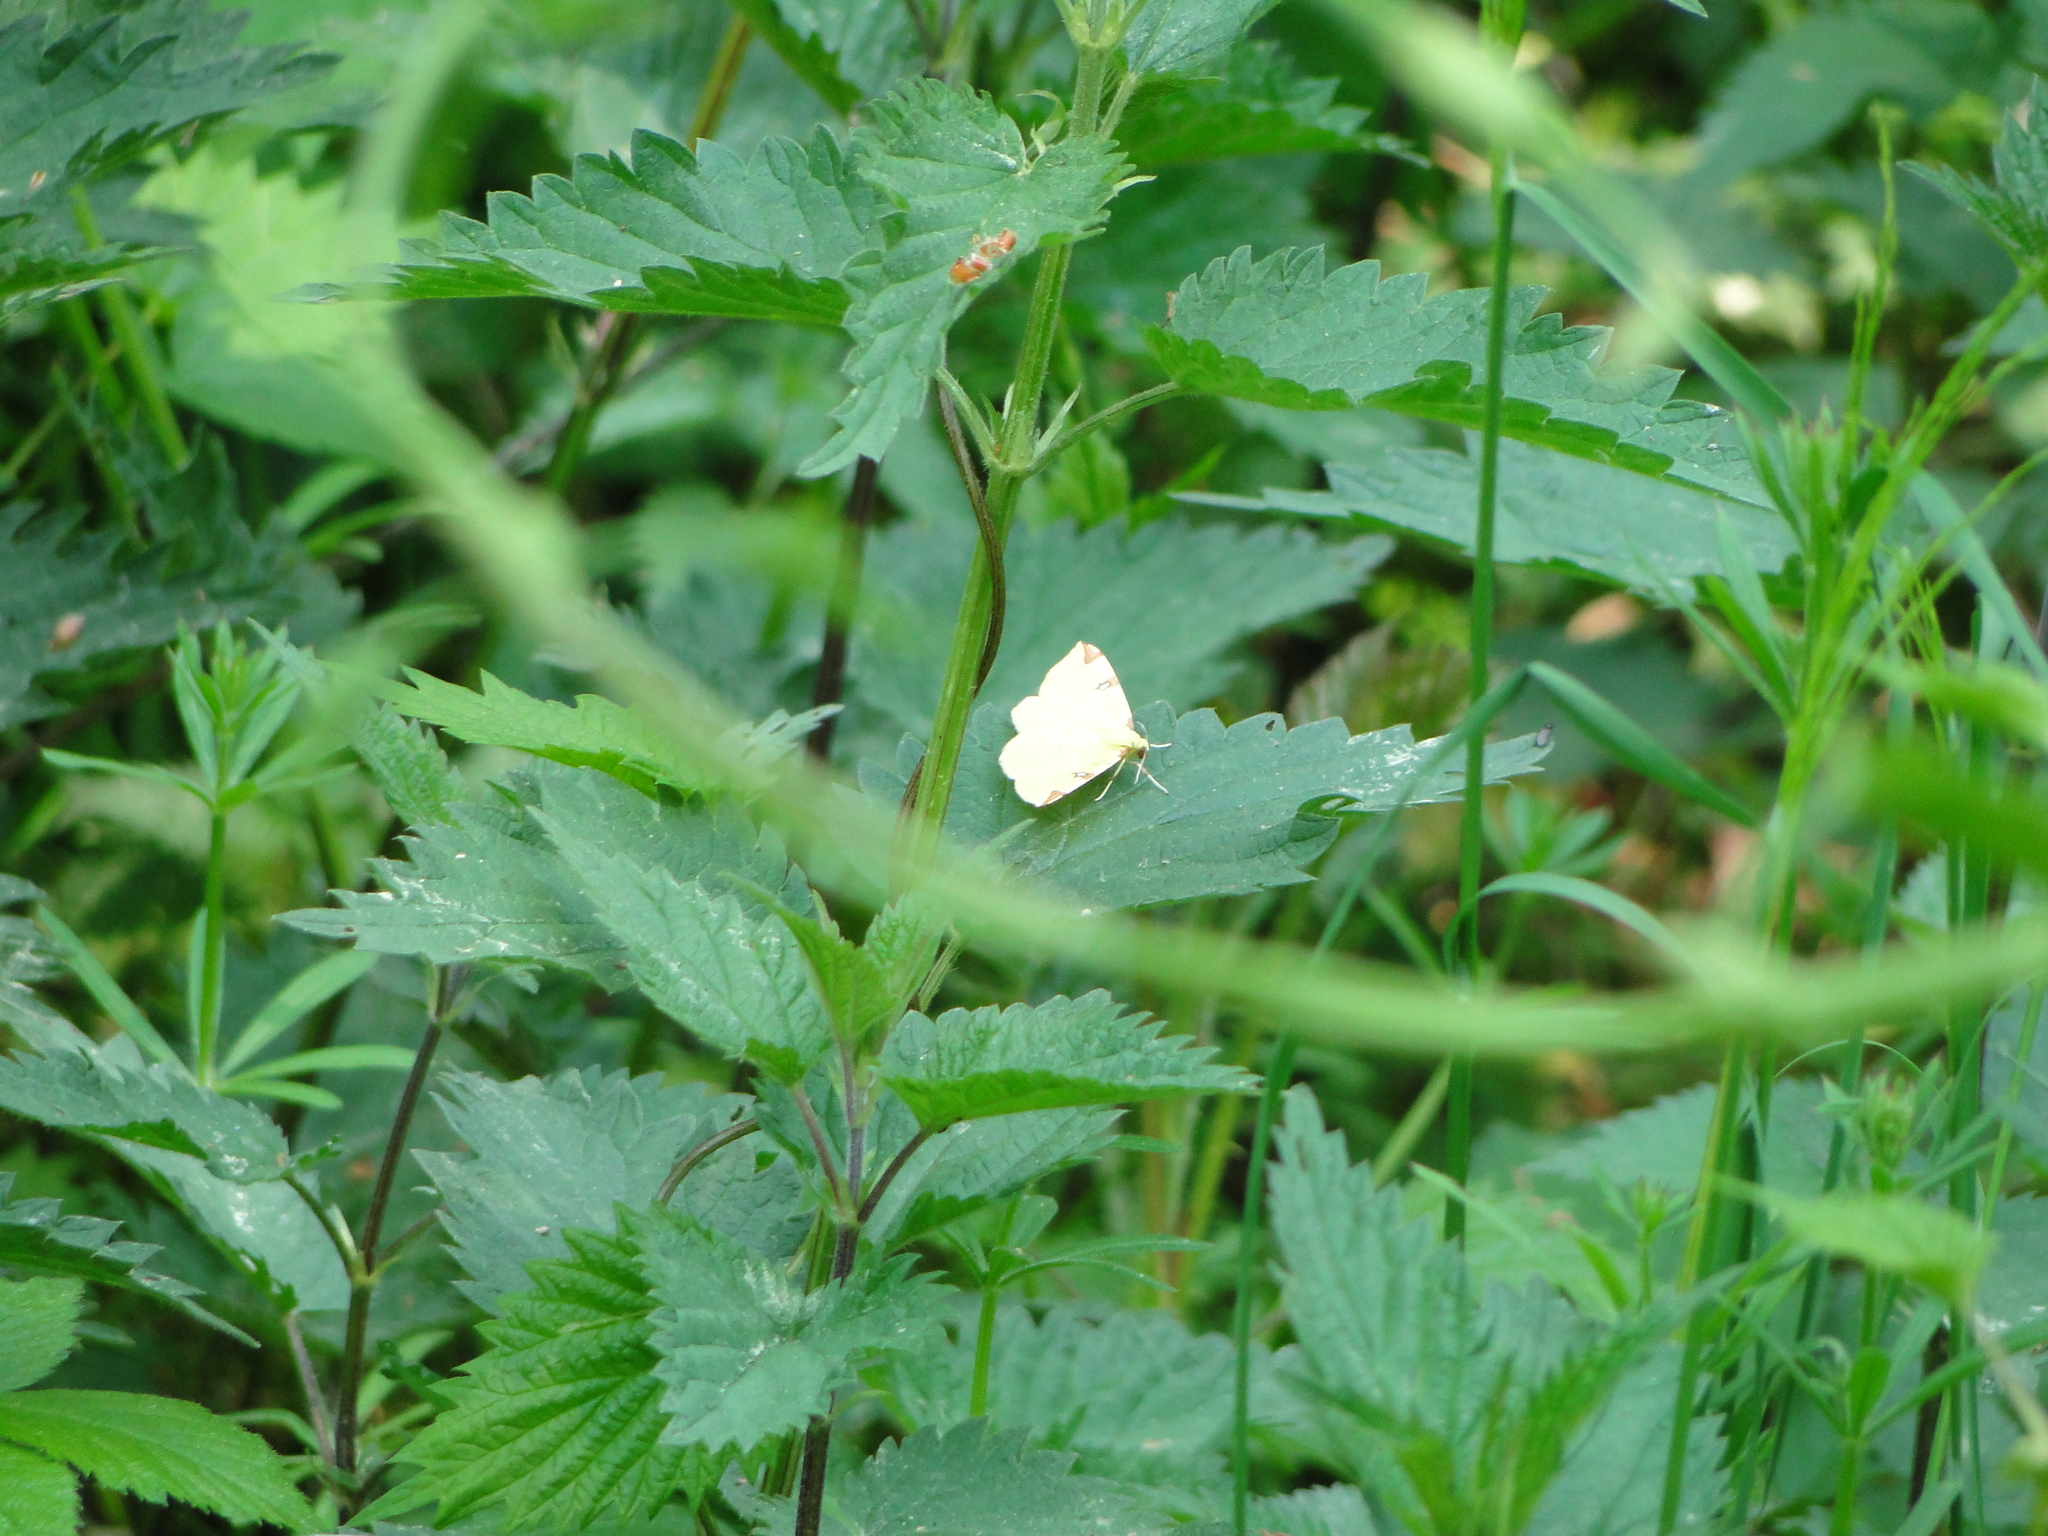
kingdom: Animalia
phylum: Arthropoda
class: Insecta
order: Lepidoptera
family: Geometridae
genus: Opisthograptis
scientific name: Opisthograptis luteolata
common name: Brimstone moth
